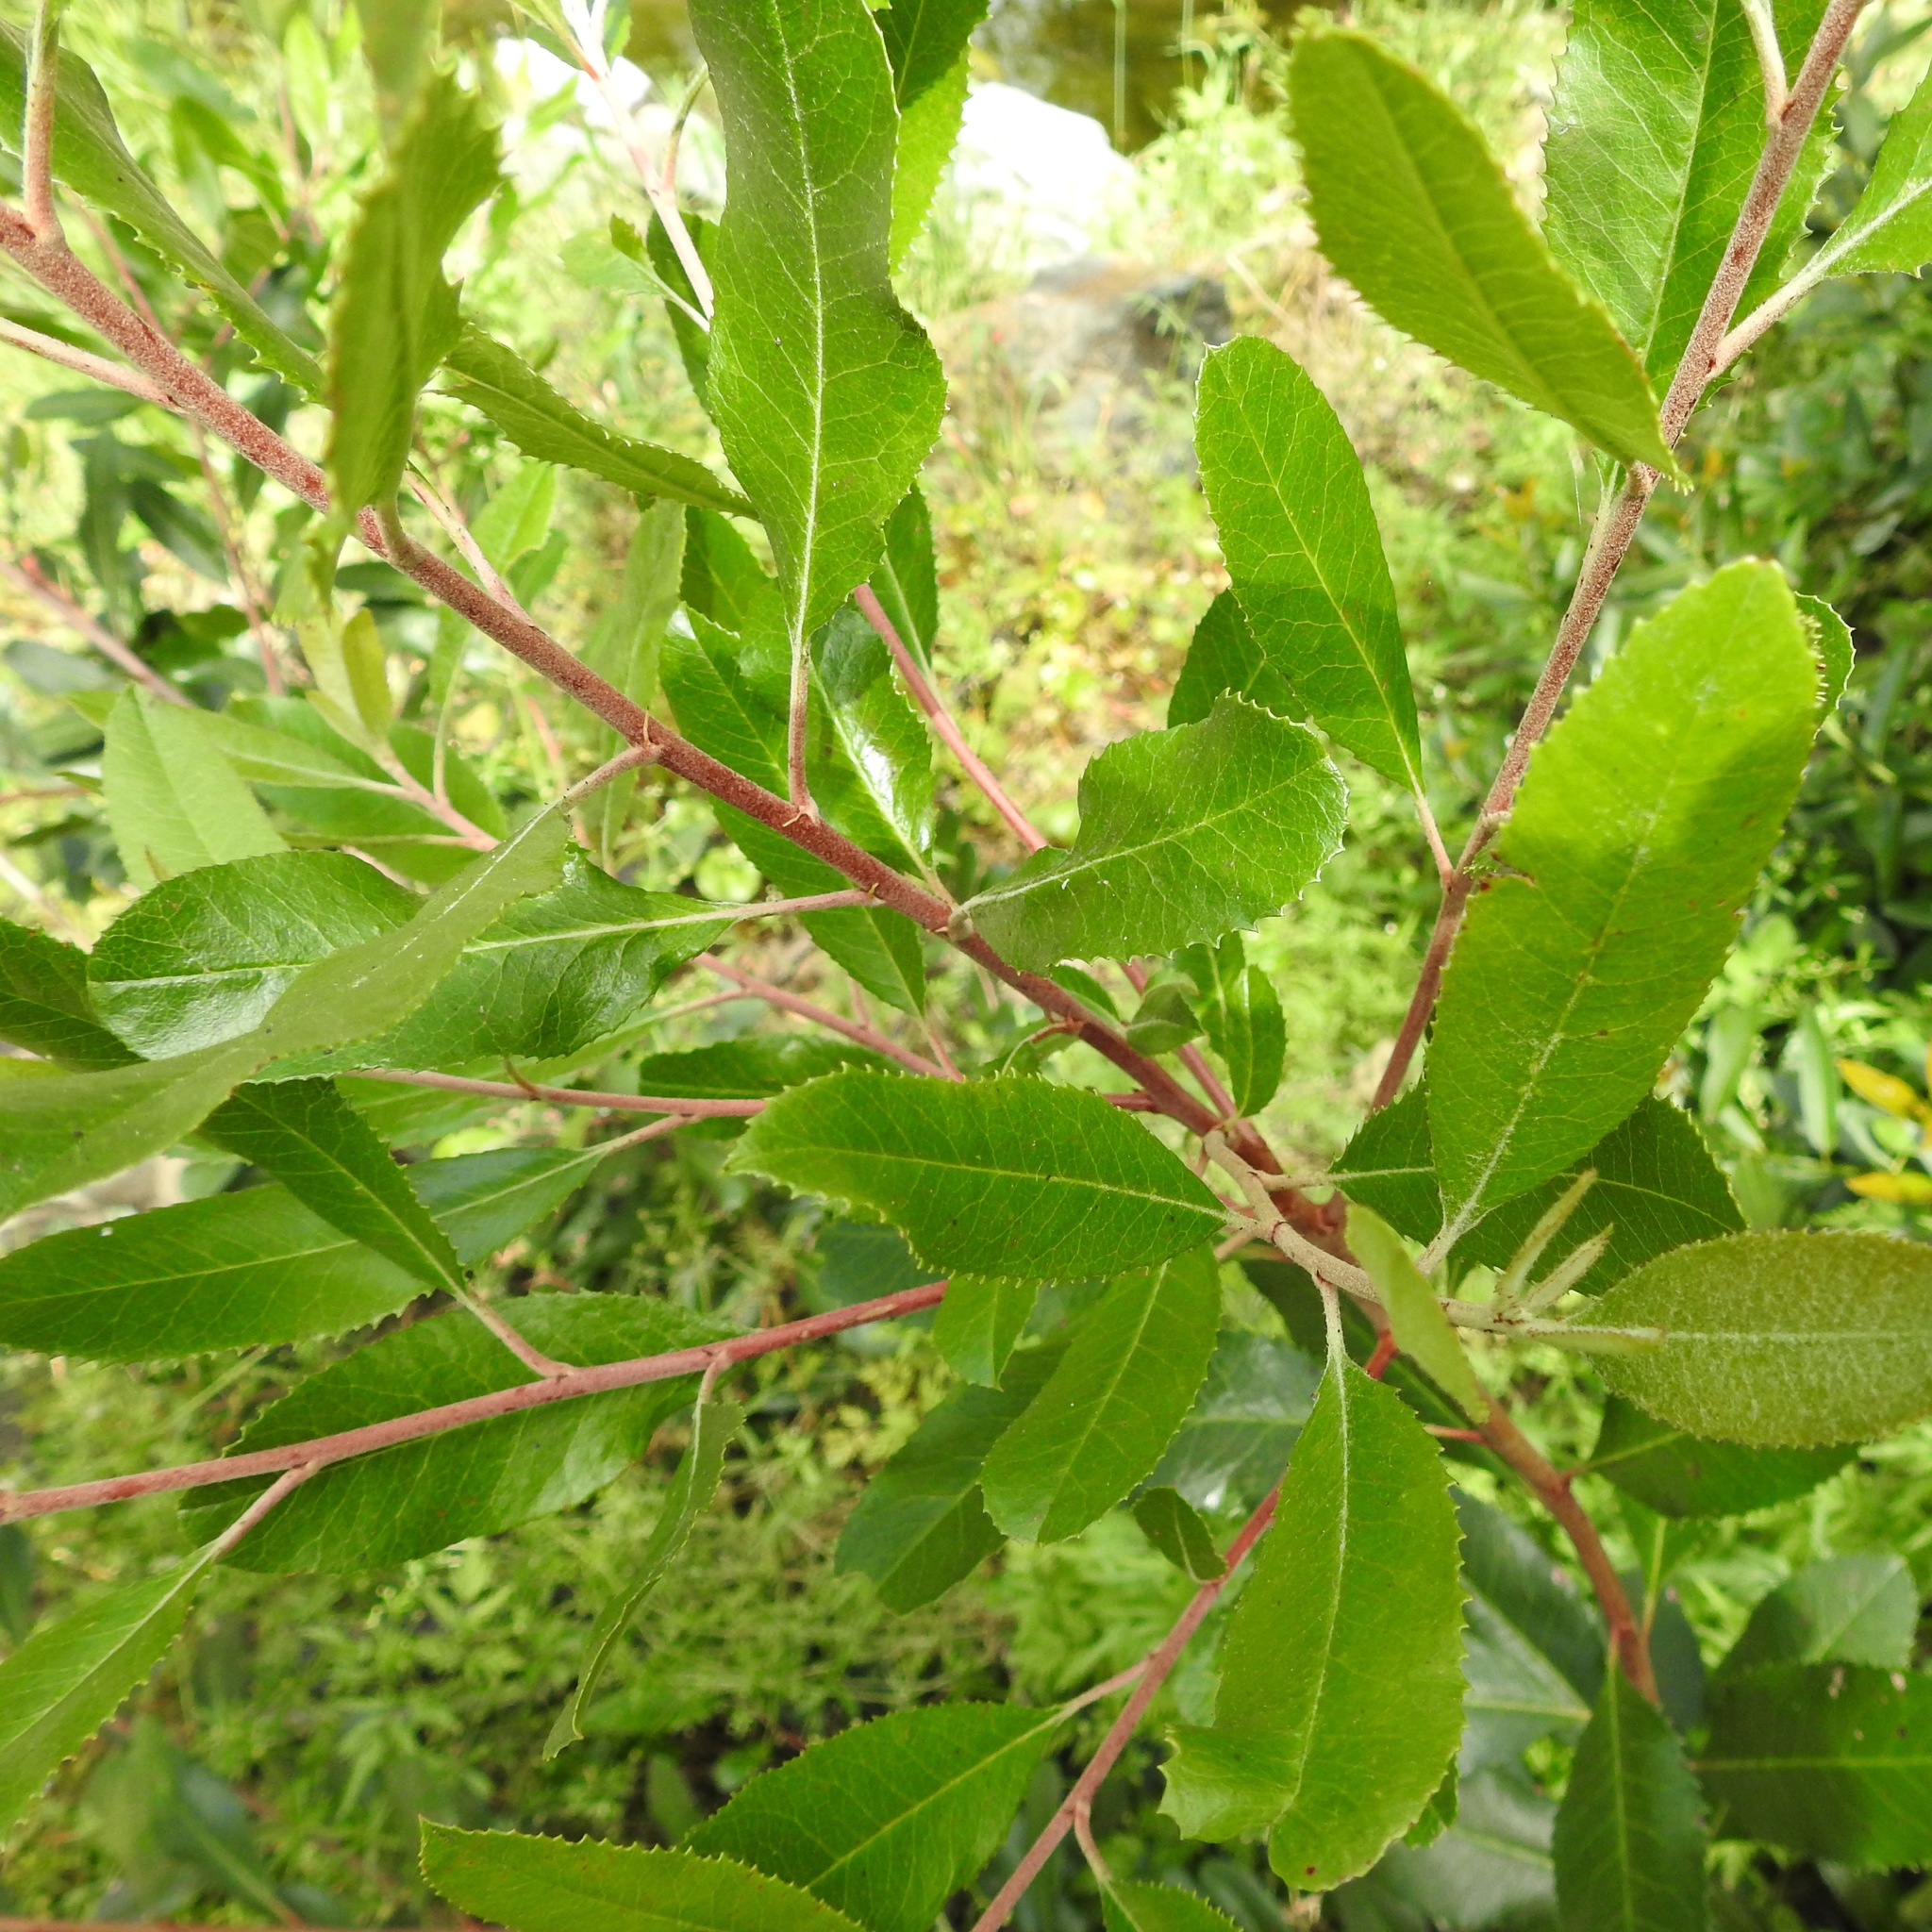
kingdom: Plantae
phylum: Tracheophyta
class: Magnoliopsida
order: Rosales
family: Rosaceae
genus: Heteromeles
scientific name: Heteromeles arbutifolia
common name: California-holly
